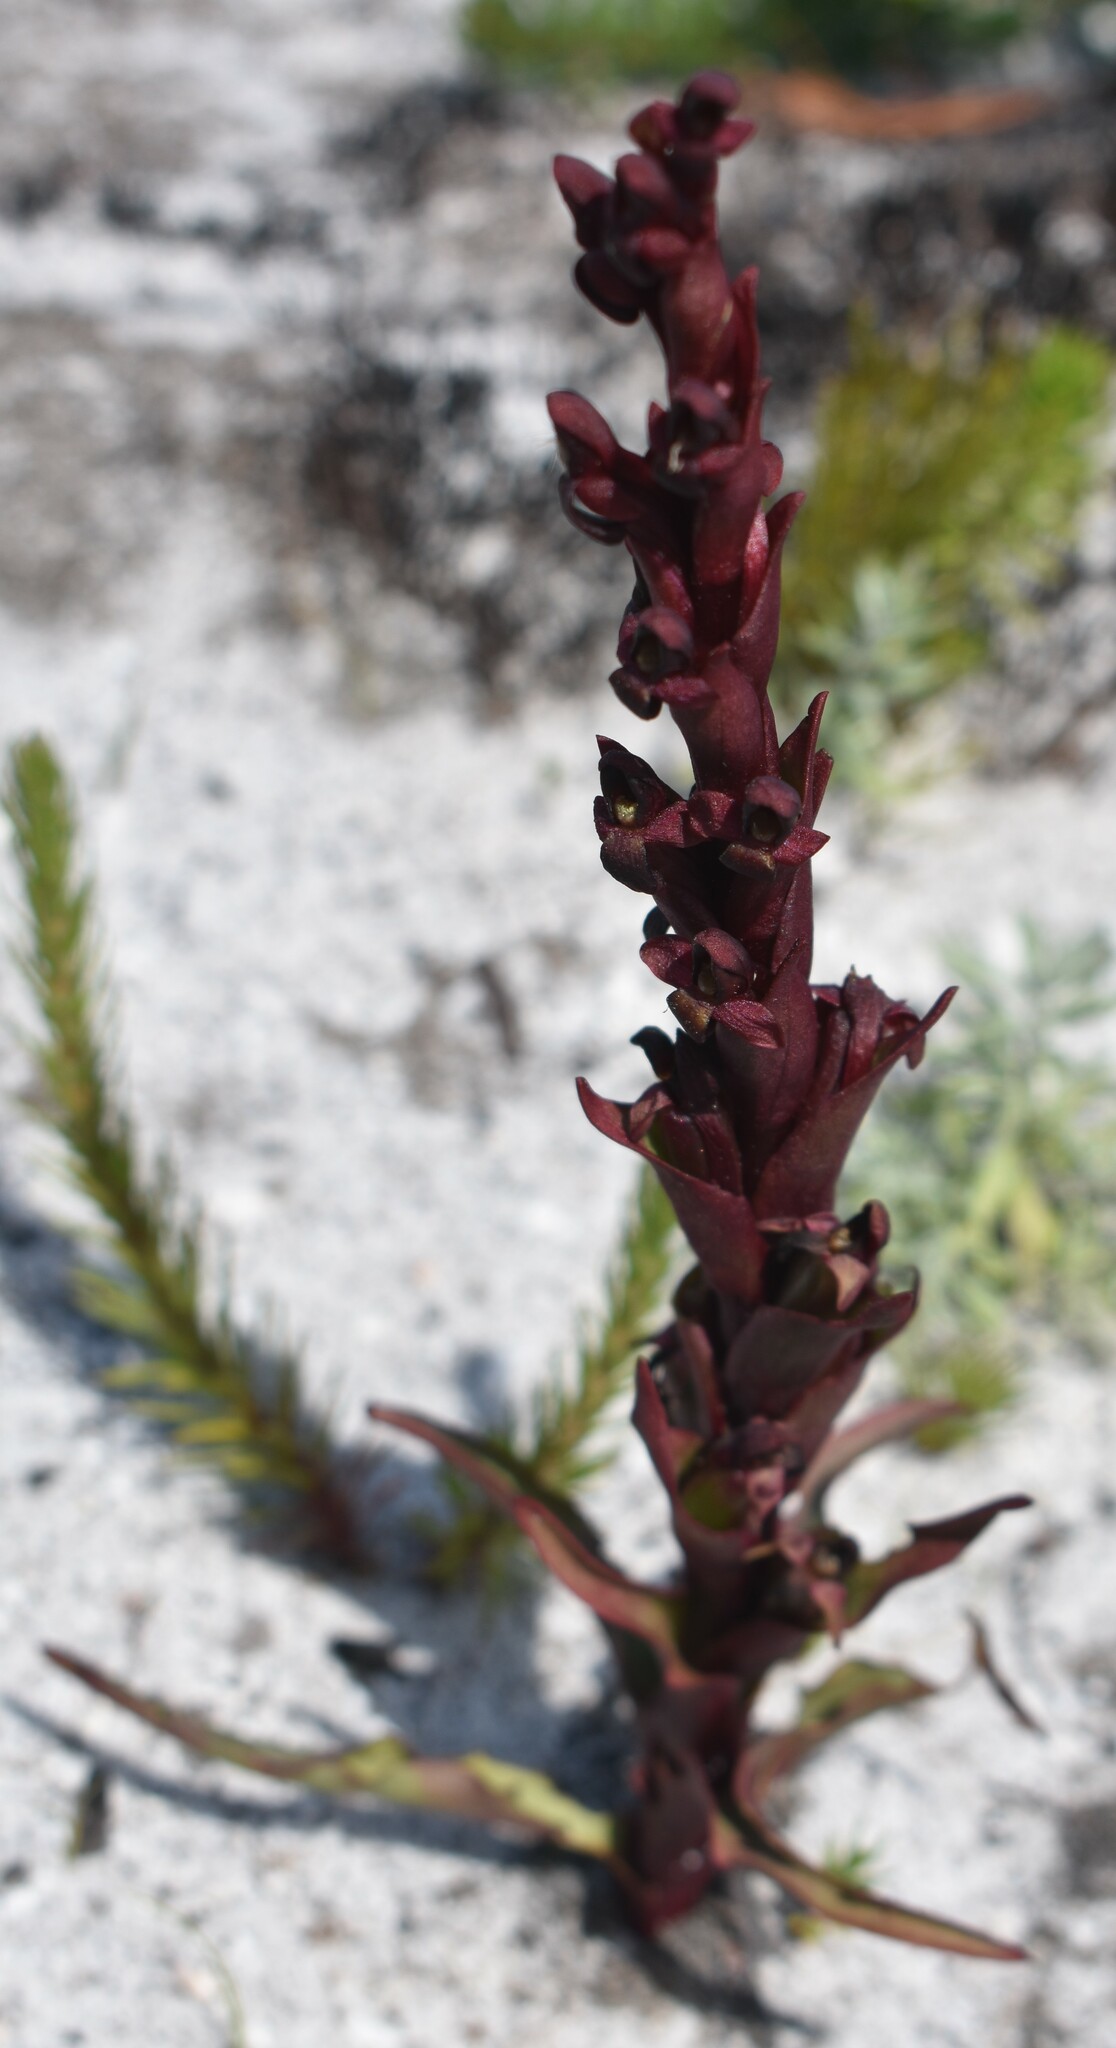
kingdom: Plantae
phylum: Tracheophyta
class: Liliopsida
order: Asparagales
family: Orchidaceae
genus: Disa
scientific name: Disa atrorubens
